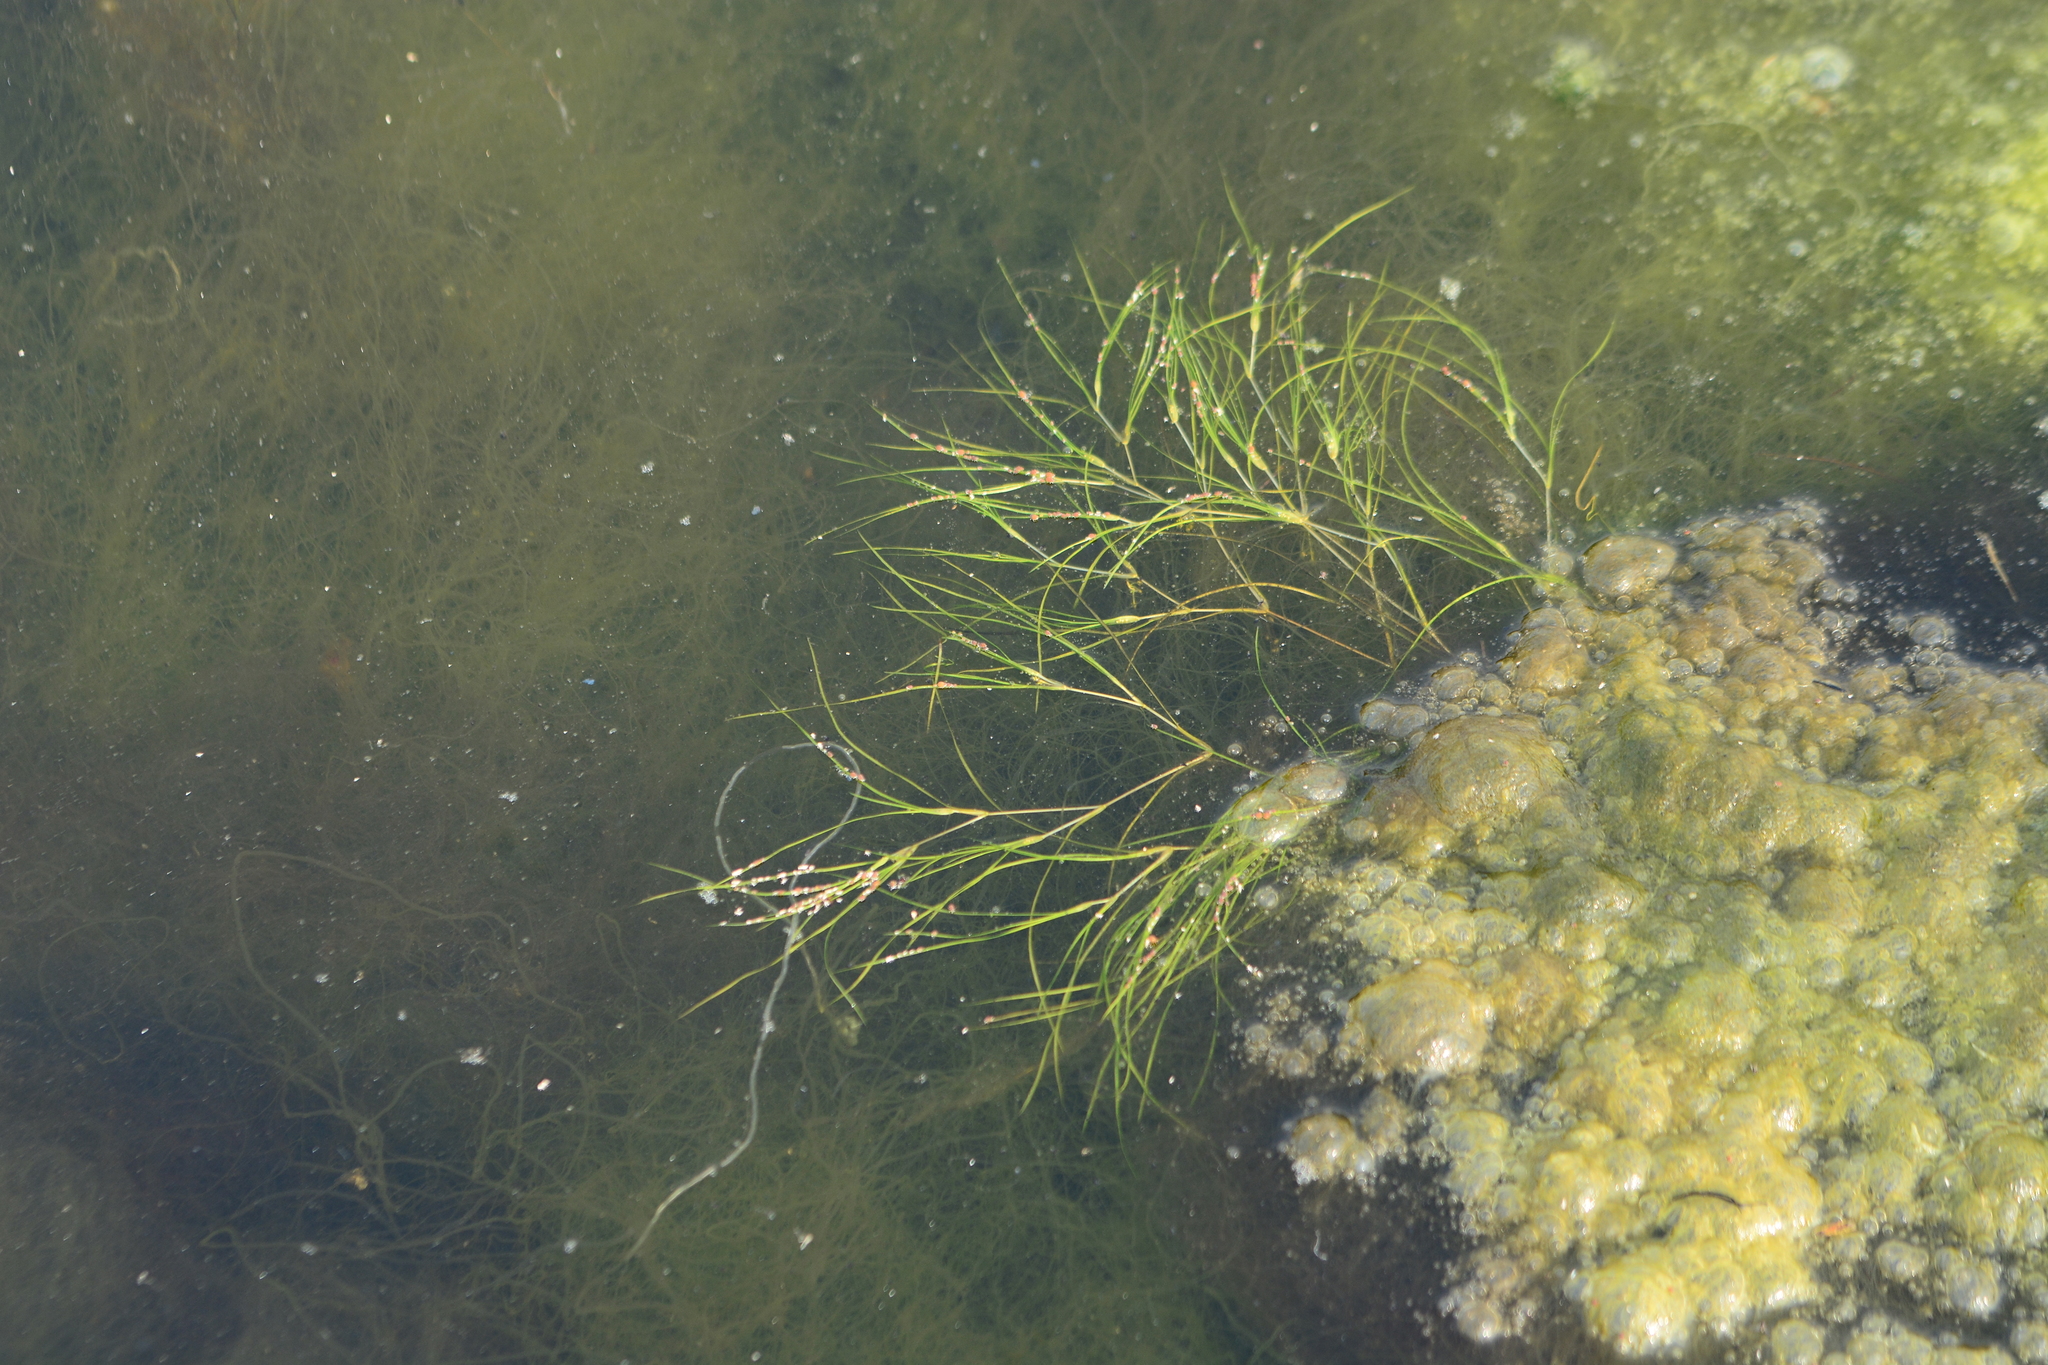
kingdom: Plantae
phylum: Tracheophyta
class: Liliopsida
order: Alismatales
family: Ruppiaceae
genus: Ruppia
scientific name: Ruppia maritima
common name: Beaked tasselweed
